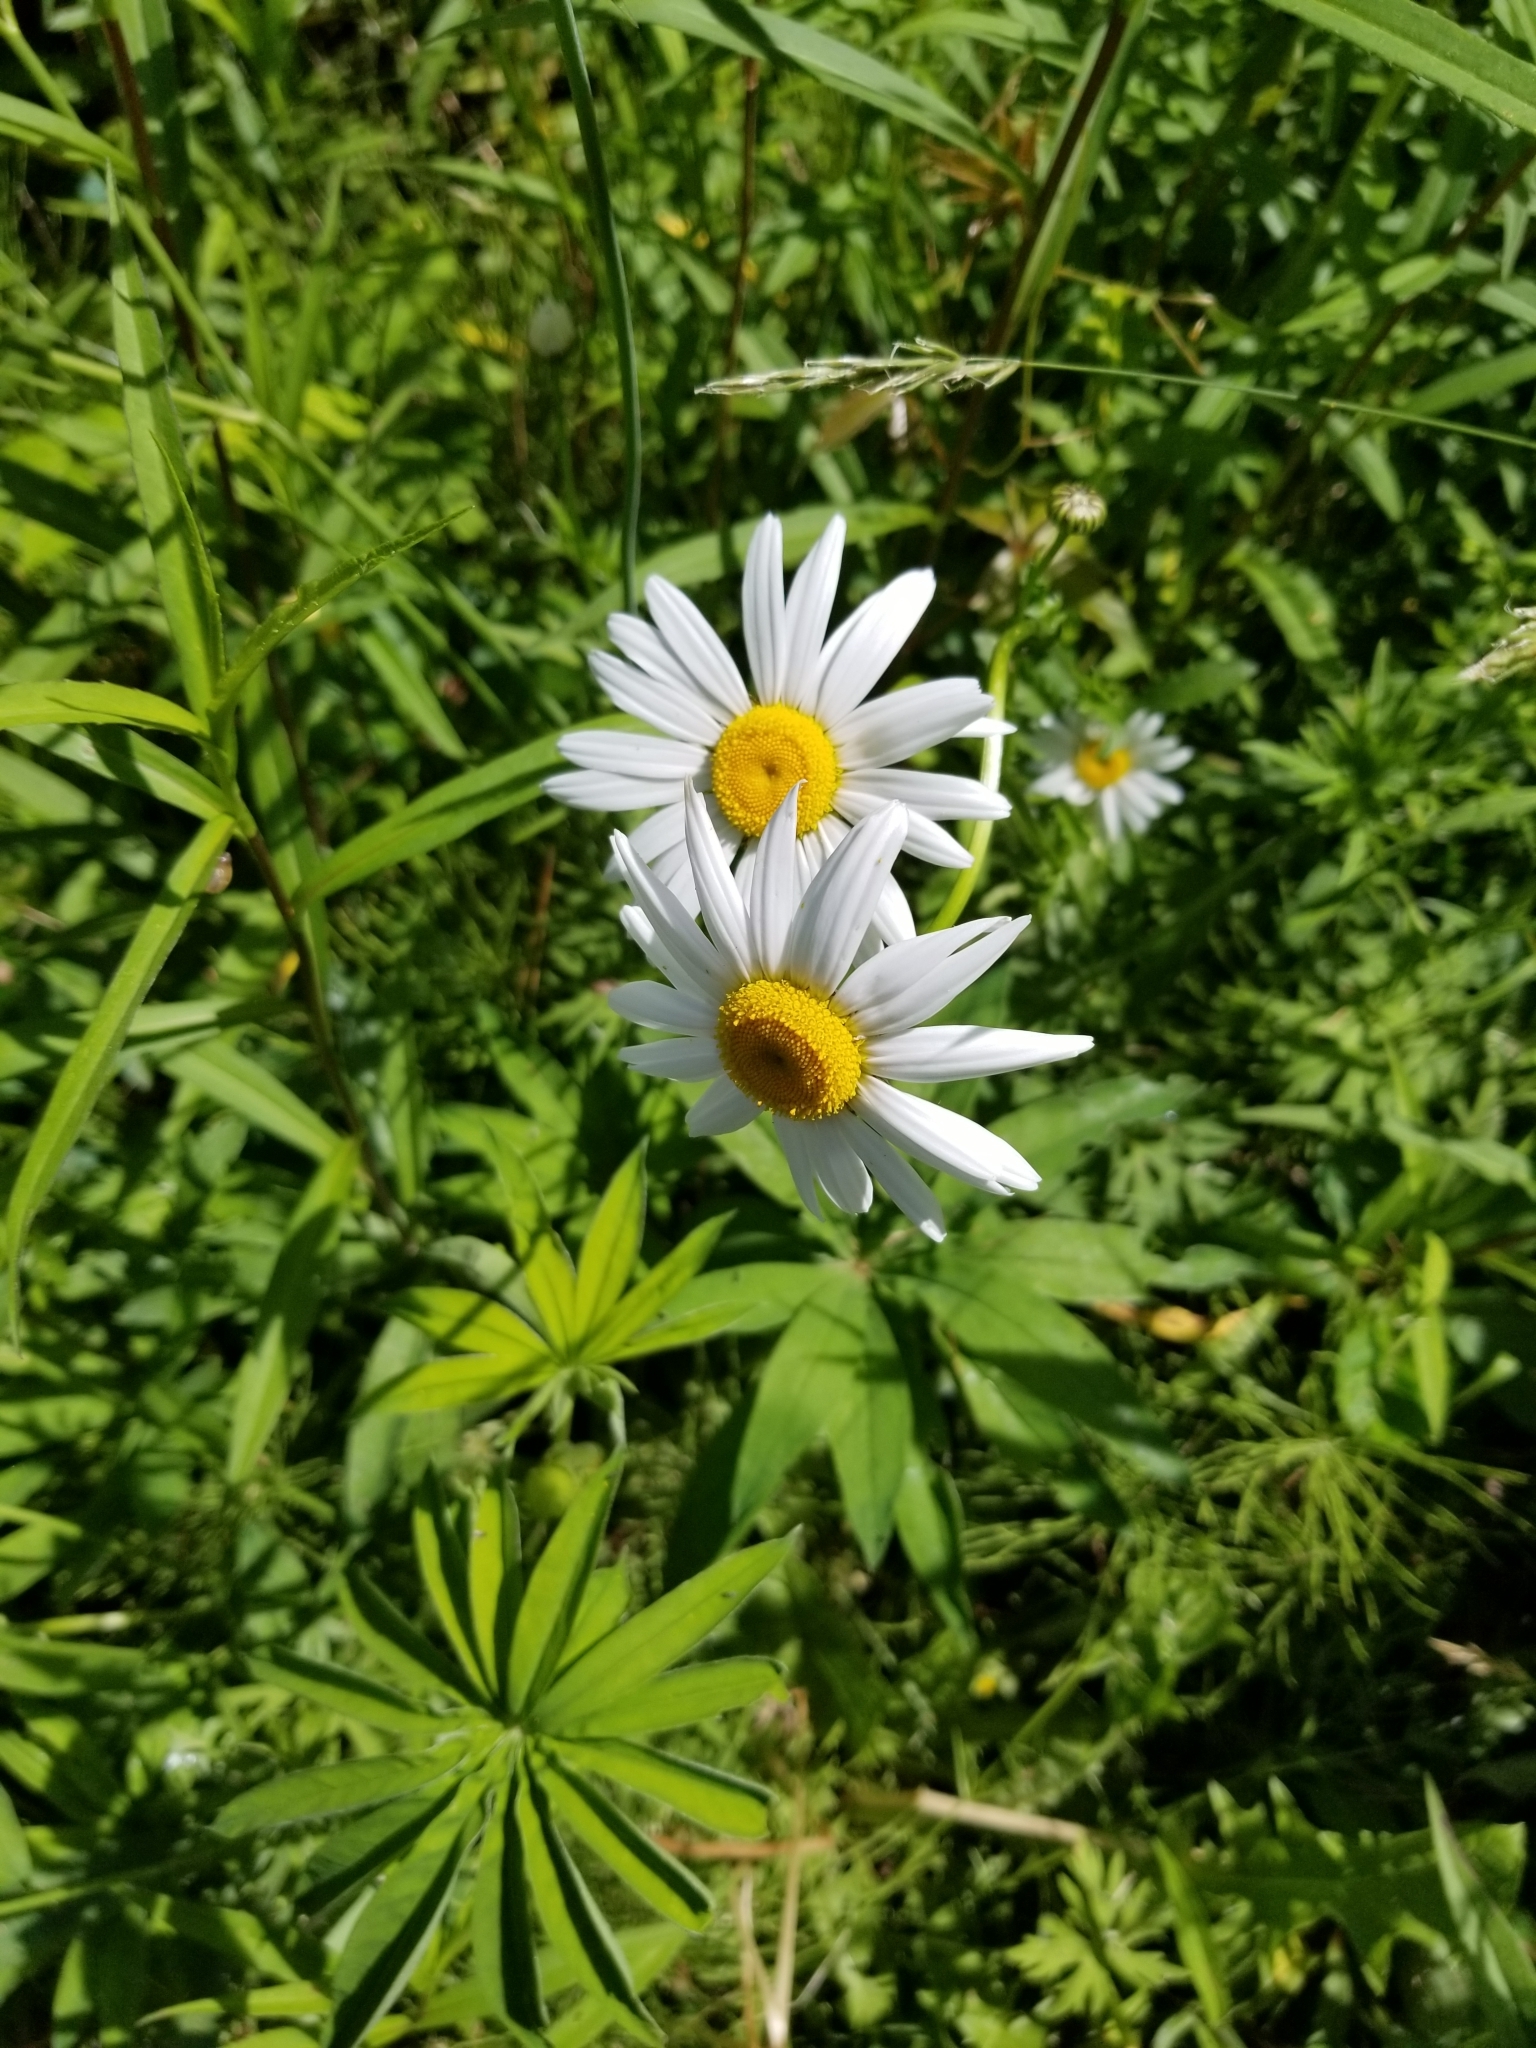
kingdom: Plantae
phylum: Tracheophyta
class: Magnoliopsida
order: Asterales
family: Asteraceae
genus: Leucanthemum
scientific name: Leucanthemum vulgare
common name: Oxeye daisy
